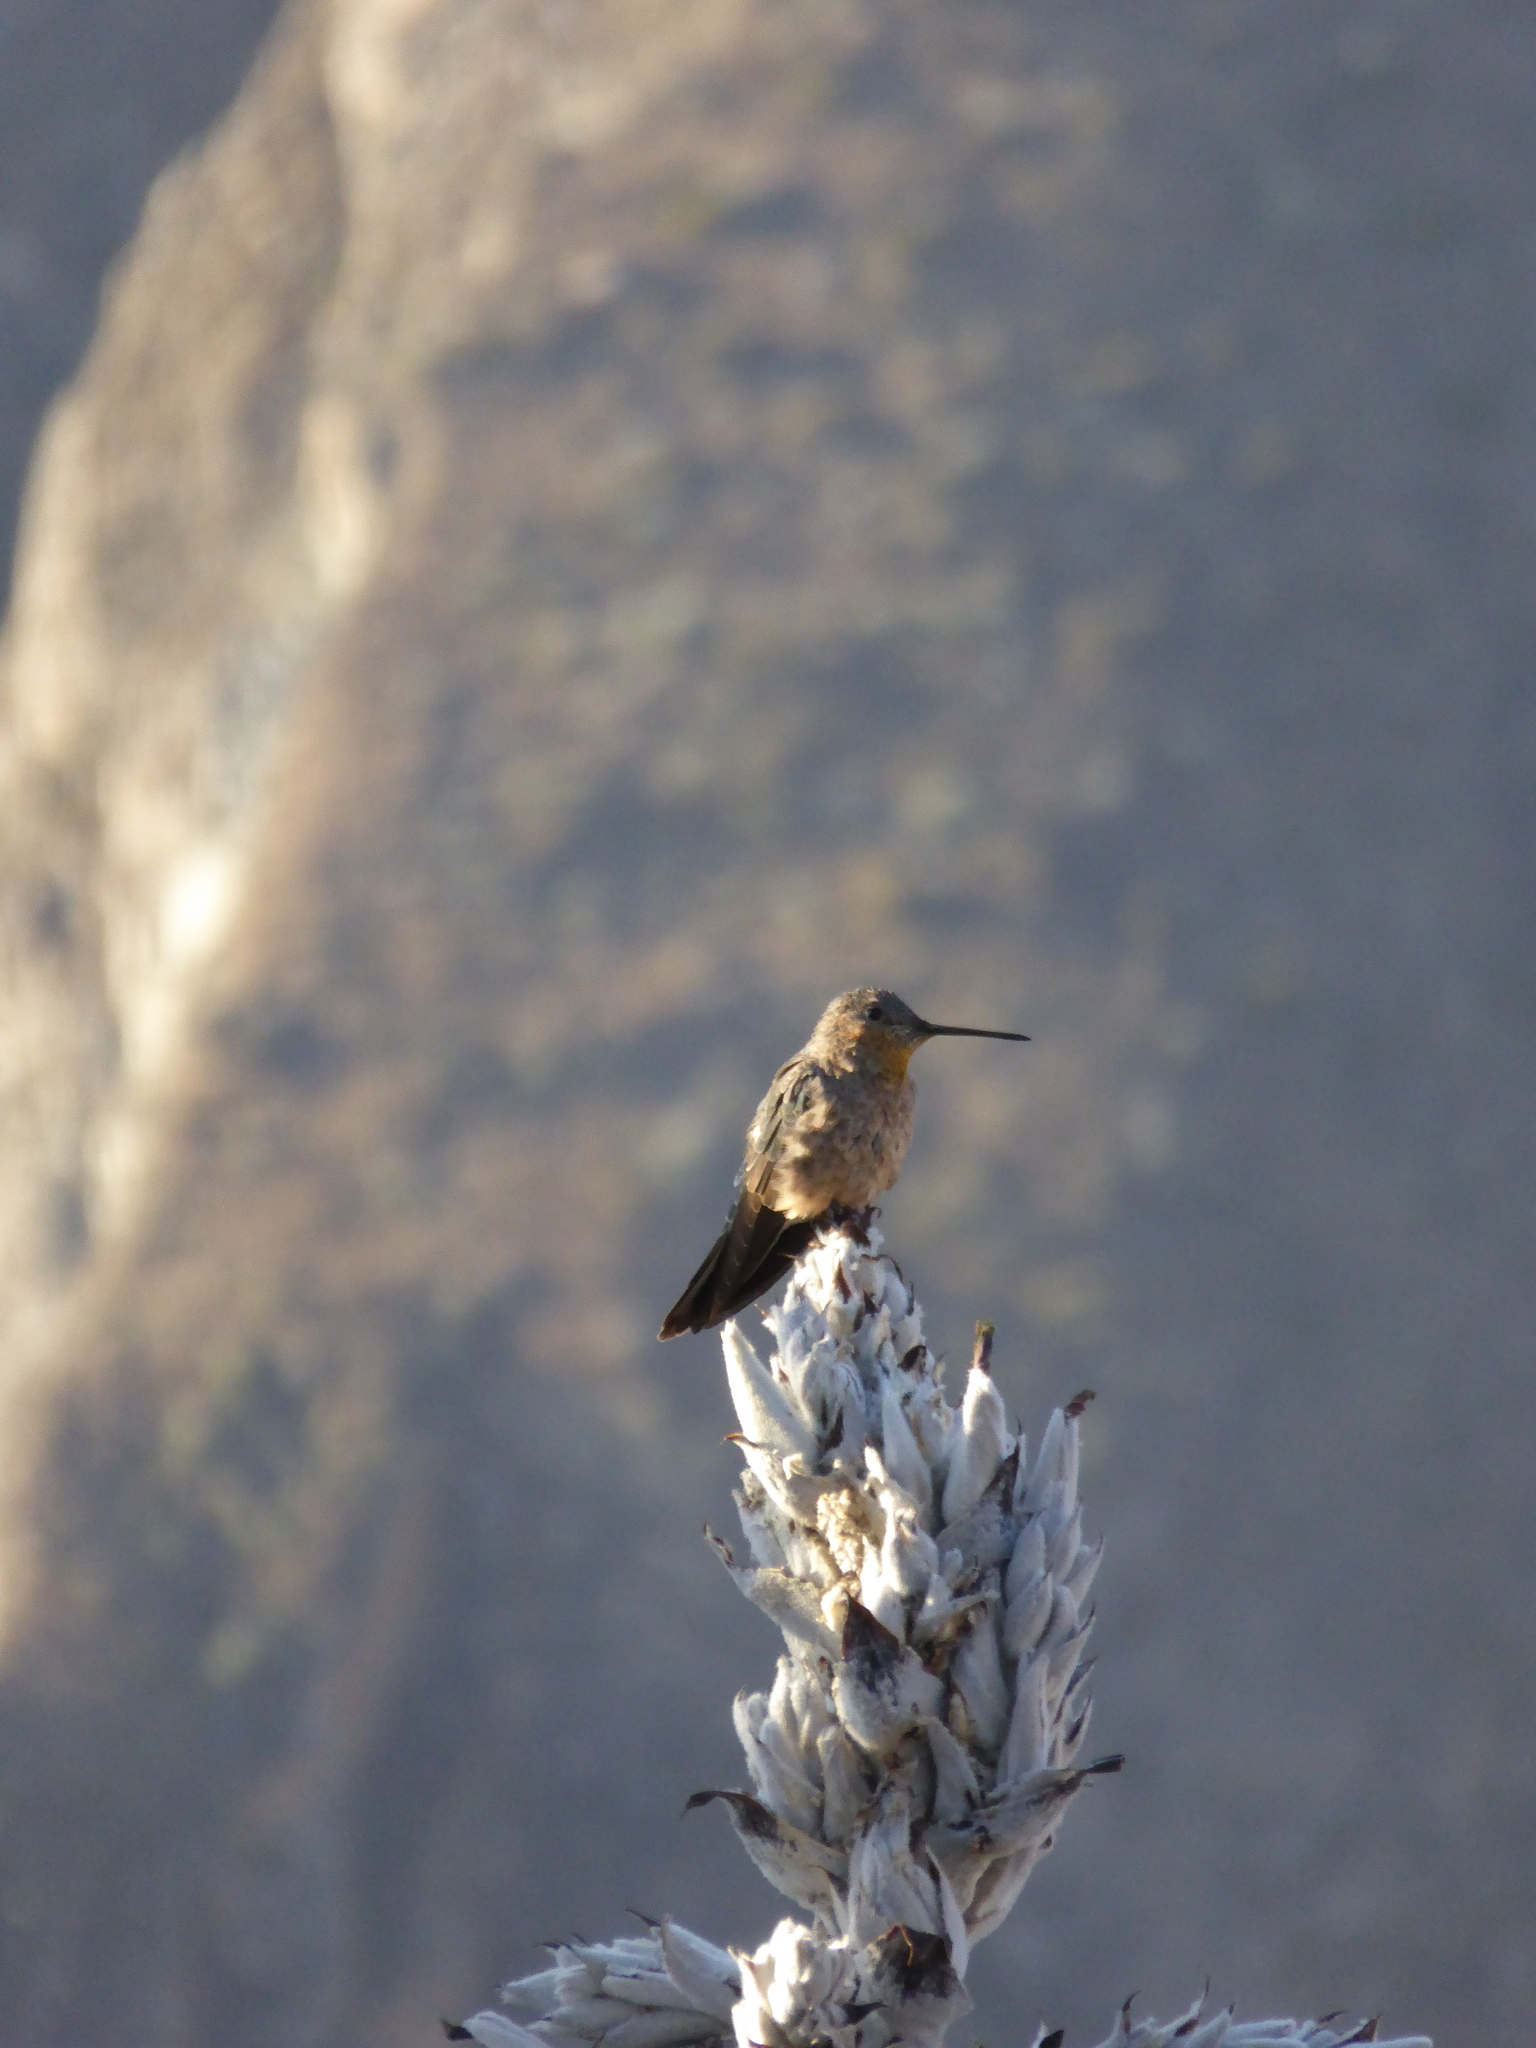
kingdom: Animalia
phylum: Chordata
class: Aves
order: Apodiformes
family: Trochilidae
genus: Patagona
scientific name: Patagona gigas
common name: Giant hummingbird
